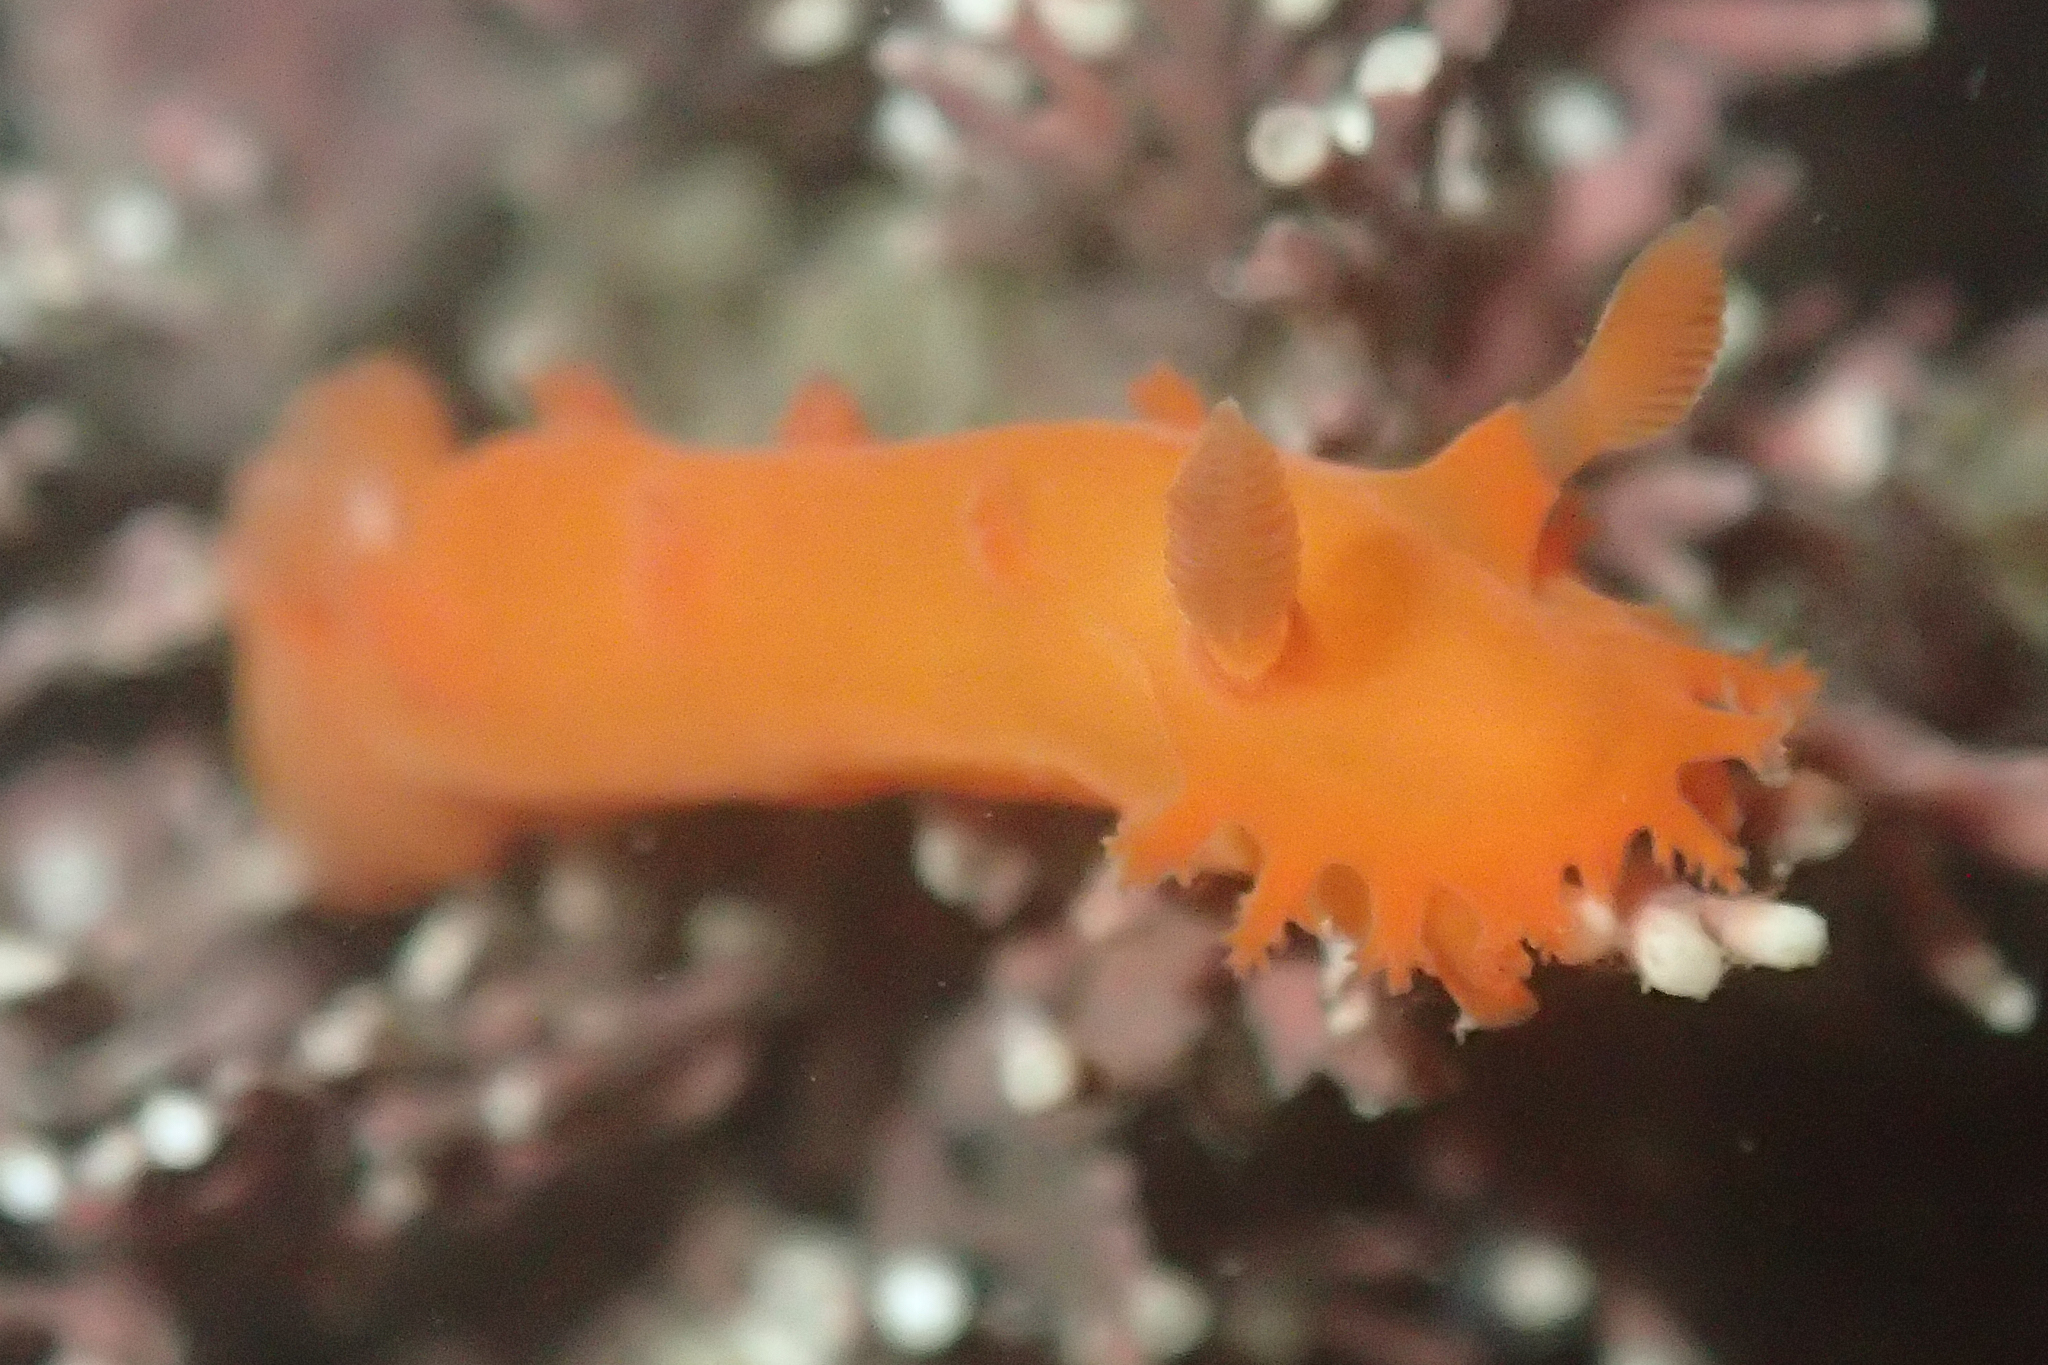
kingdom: Animalia
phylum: Mollusca
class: Gastropoda
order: Nudibranchia
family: Polyceridae
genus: Triopha
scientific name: Triopha maculata
